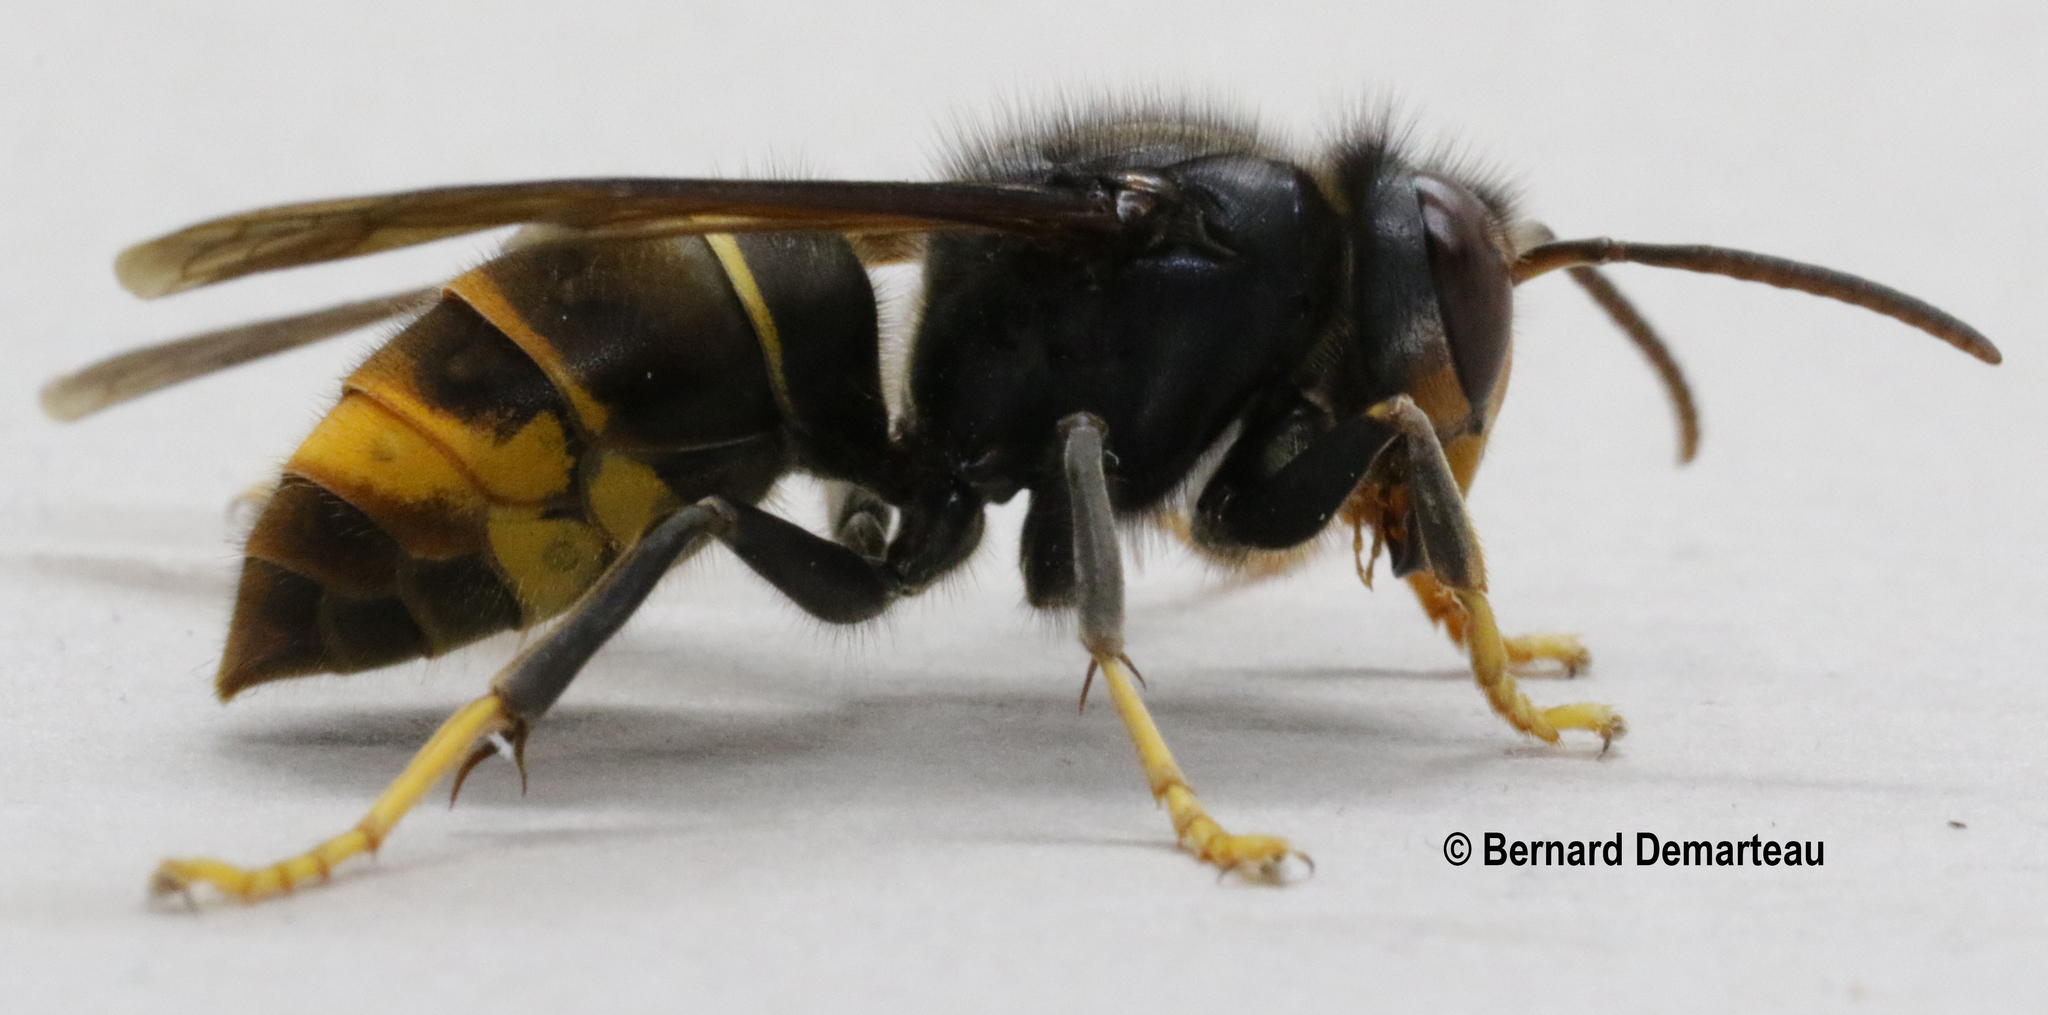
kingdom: Animalia
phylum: Arthropoda
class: Insecta
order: Hymenoptera
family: Vespidae
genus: Vespa
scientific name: Vespa velutina
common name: Asian hornet
